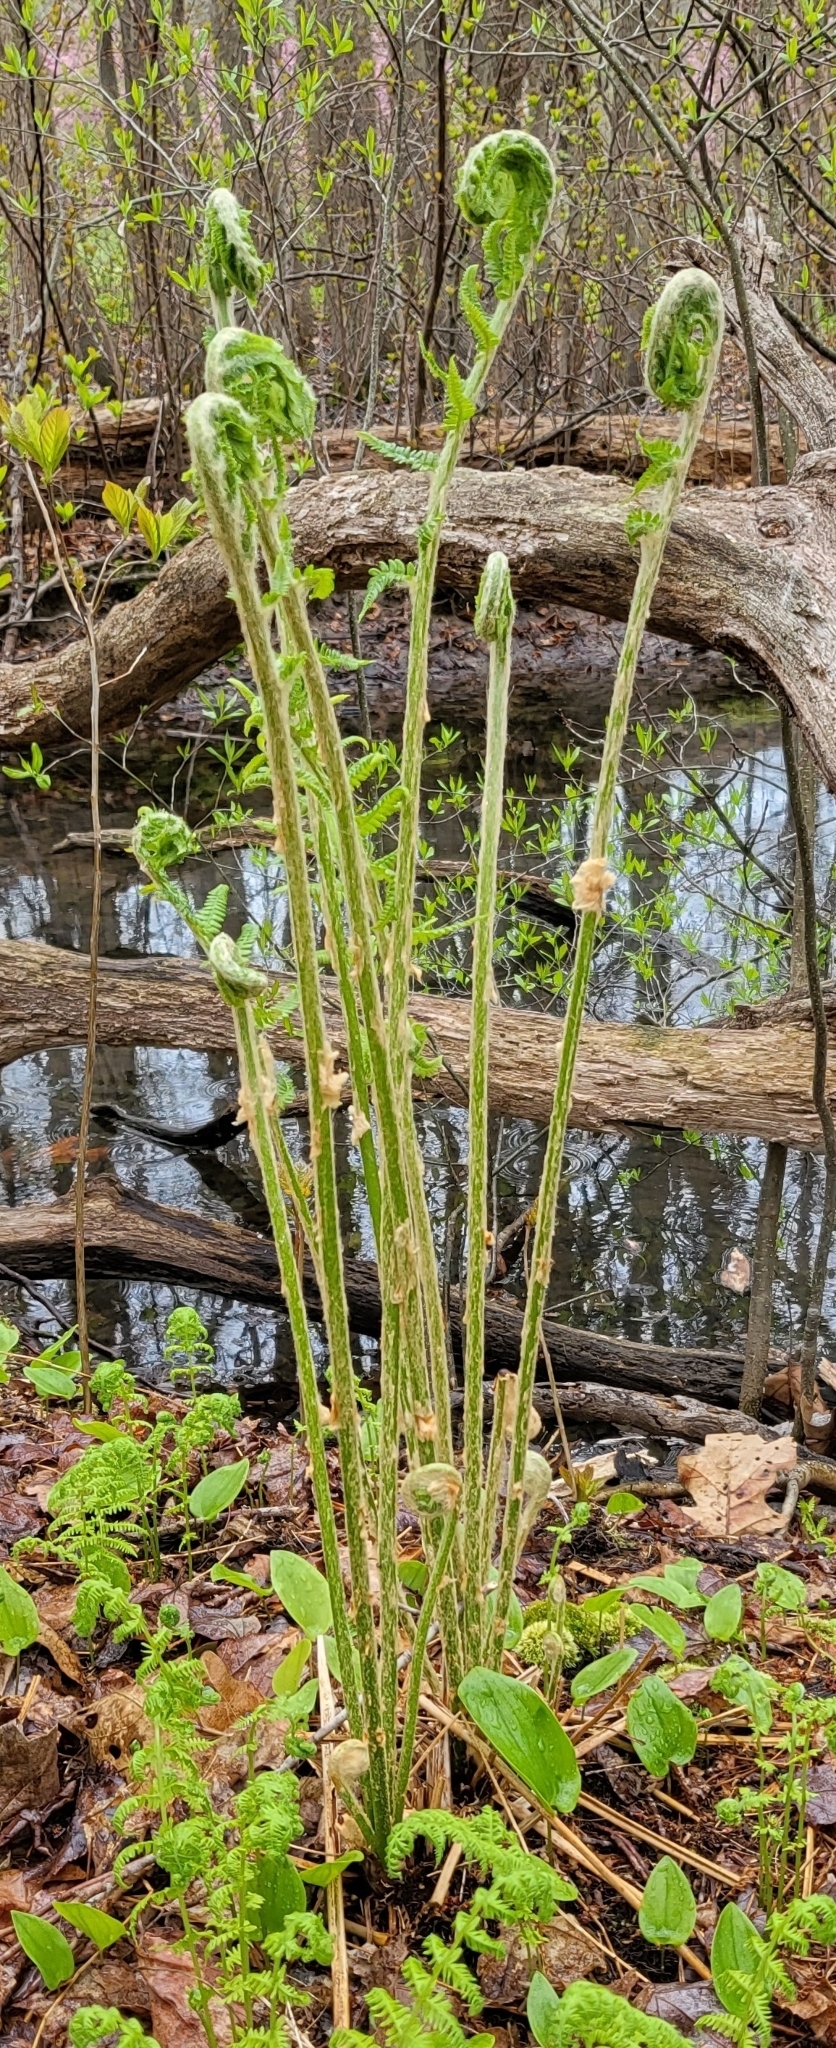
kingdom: Plantae
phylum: Tracheophyta
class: Polypodiopsida
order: Osmundales
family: Osmundaceae
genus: Osmundastrum
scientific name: Osmundastrum cinnamomeum
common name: Cinnamon fern
